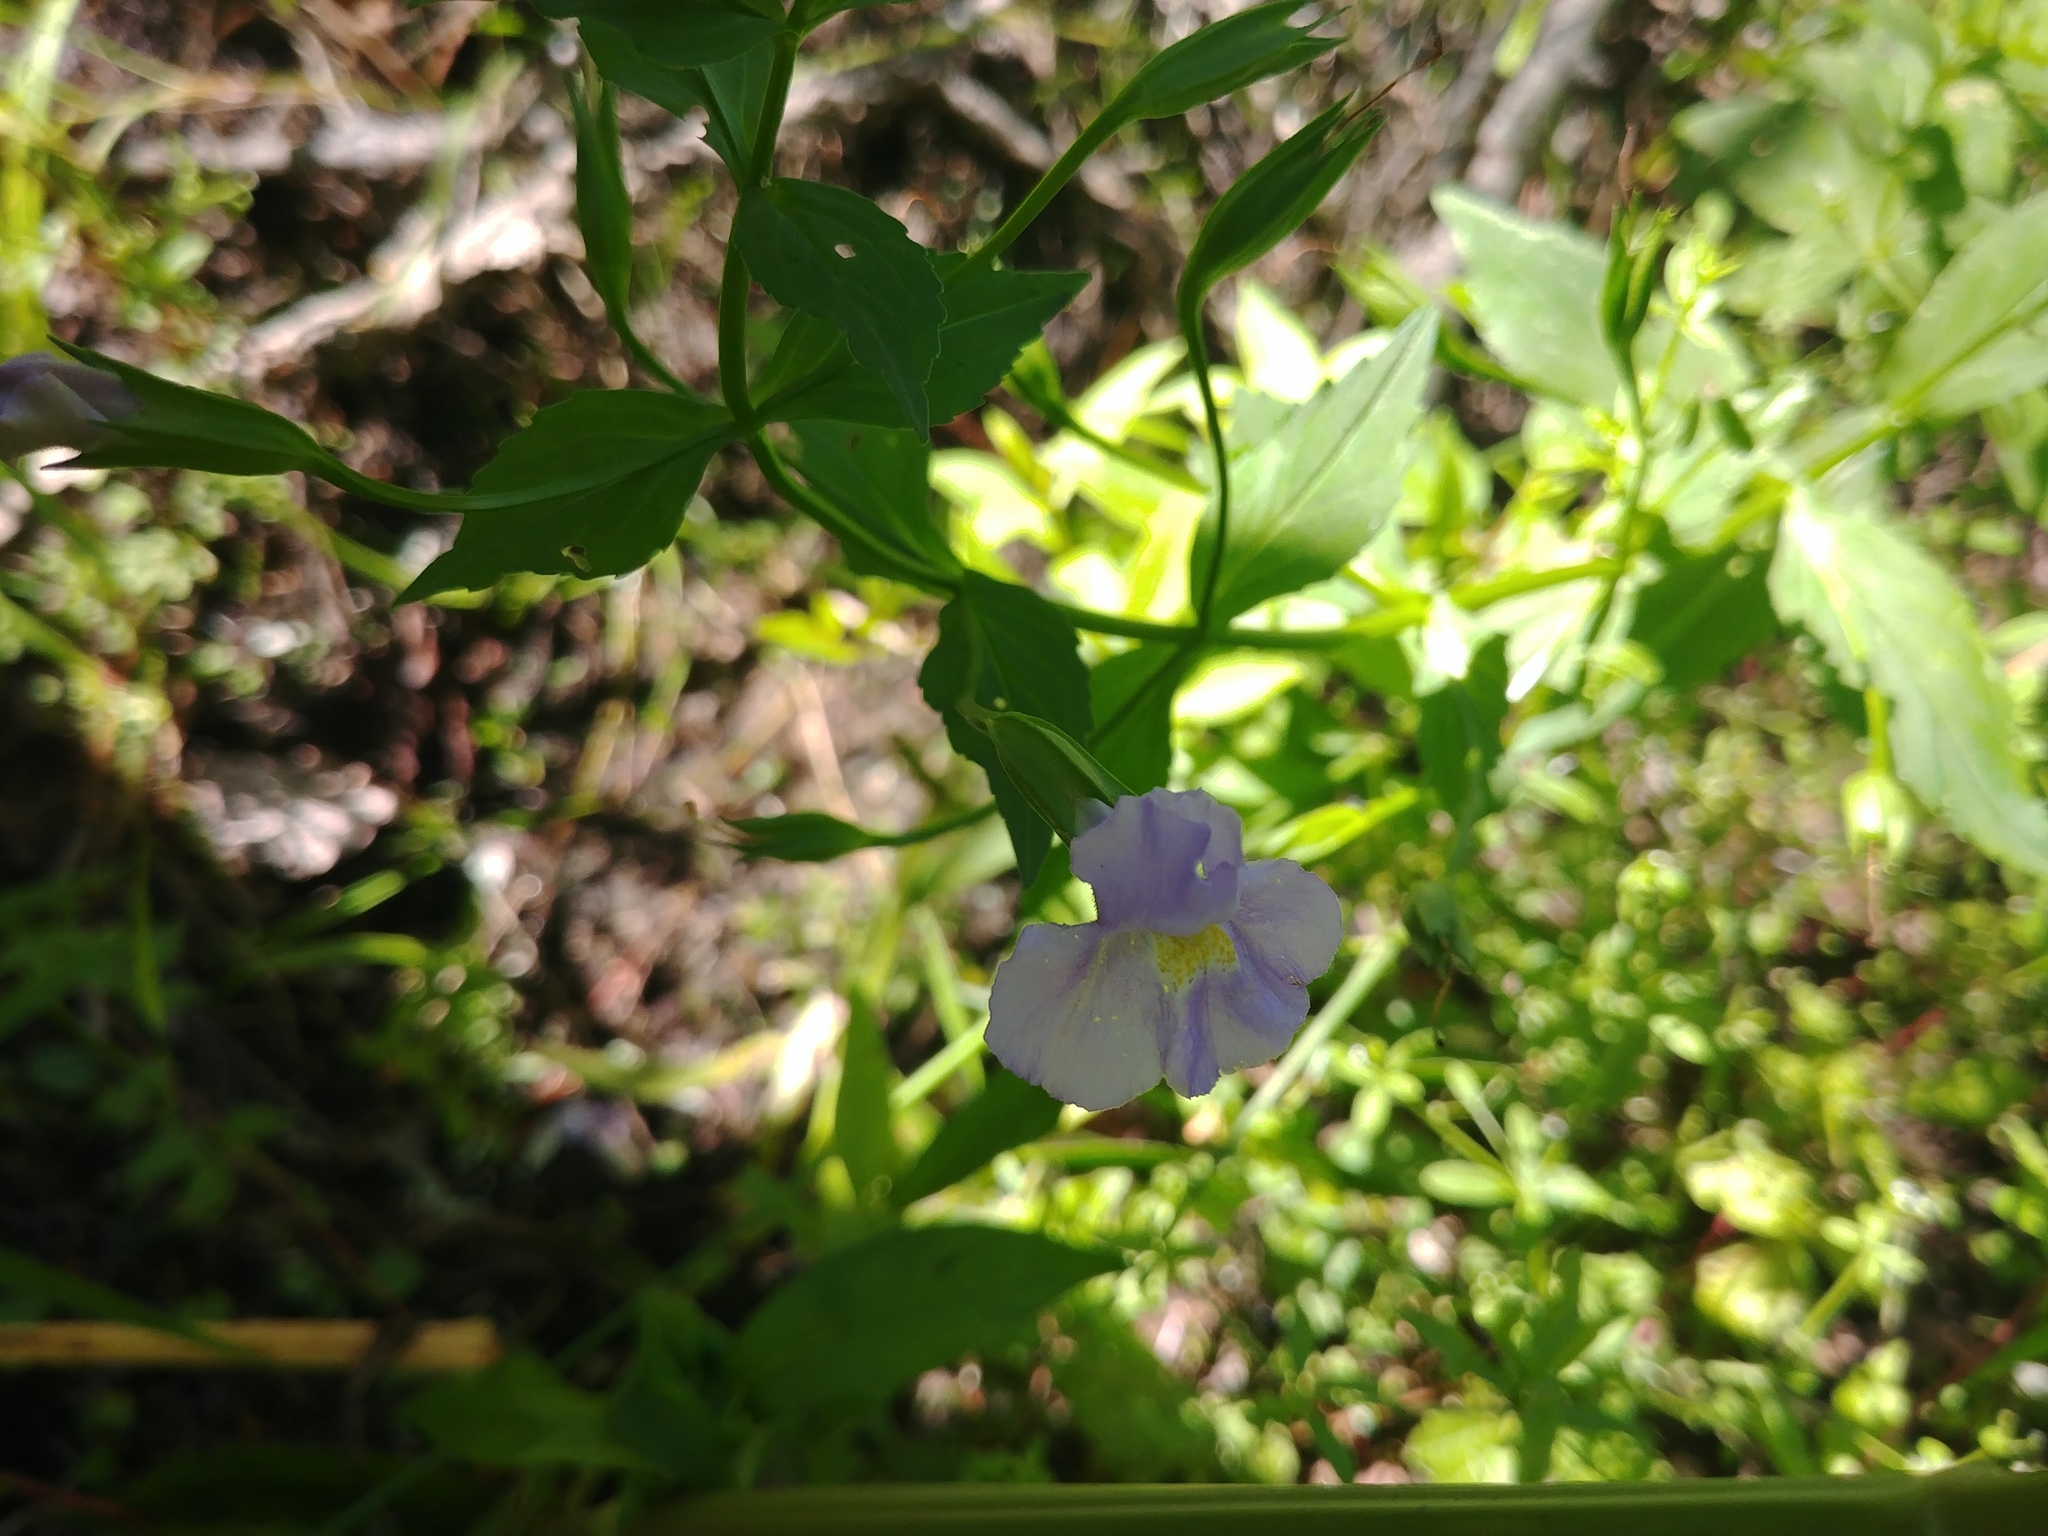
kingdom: Plantae
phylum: Tracheophyta
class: Magnoliopsida
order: Lamiales
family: Phrymaceae
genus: Mimulus
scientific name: Mimulus ringens
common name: Allegheny monkeyflower
